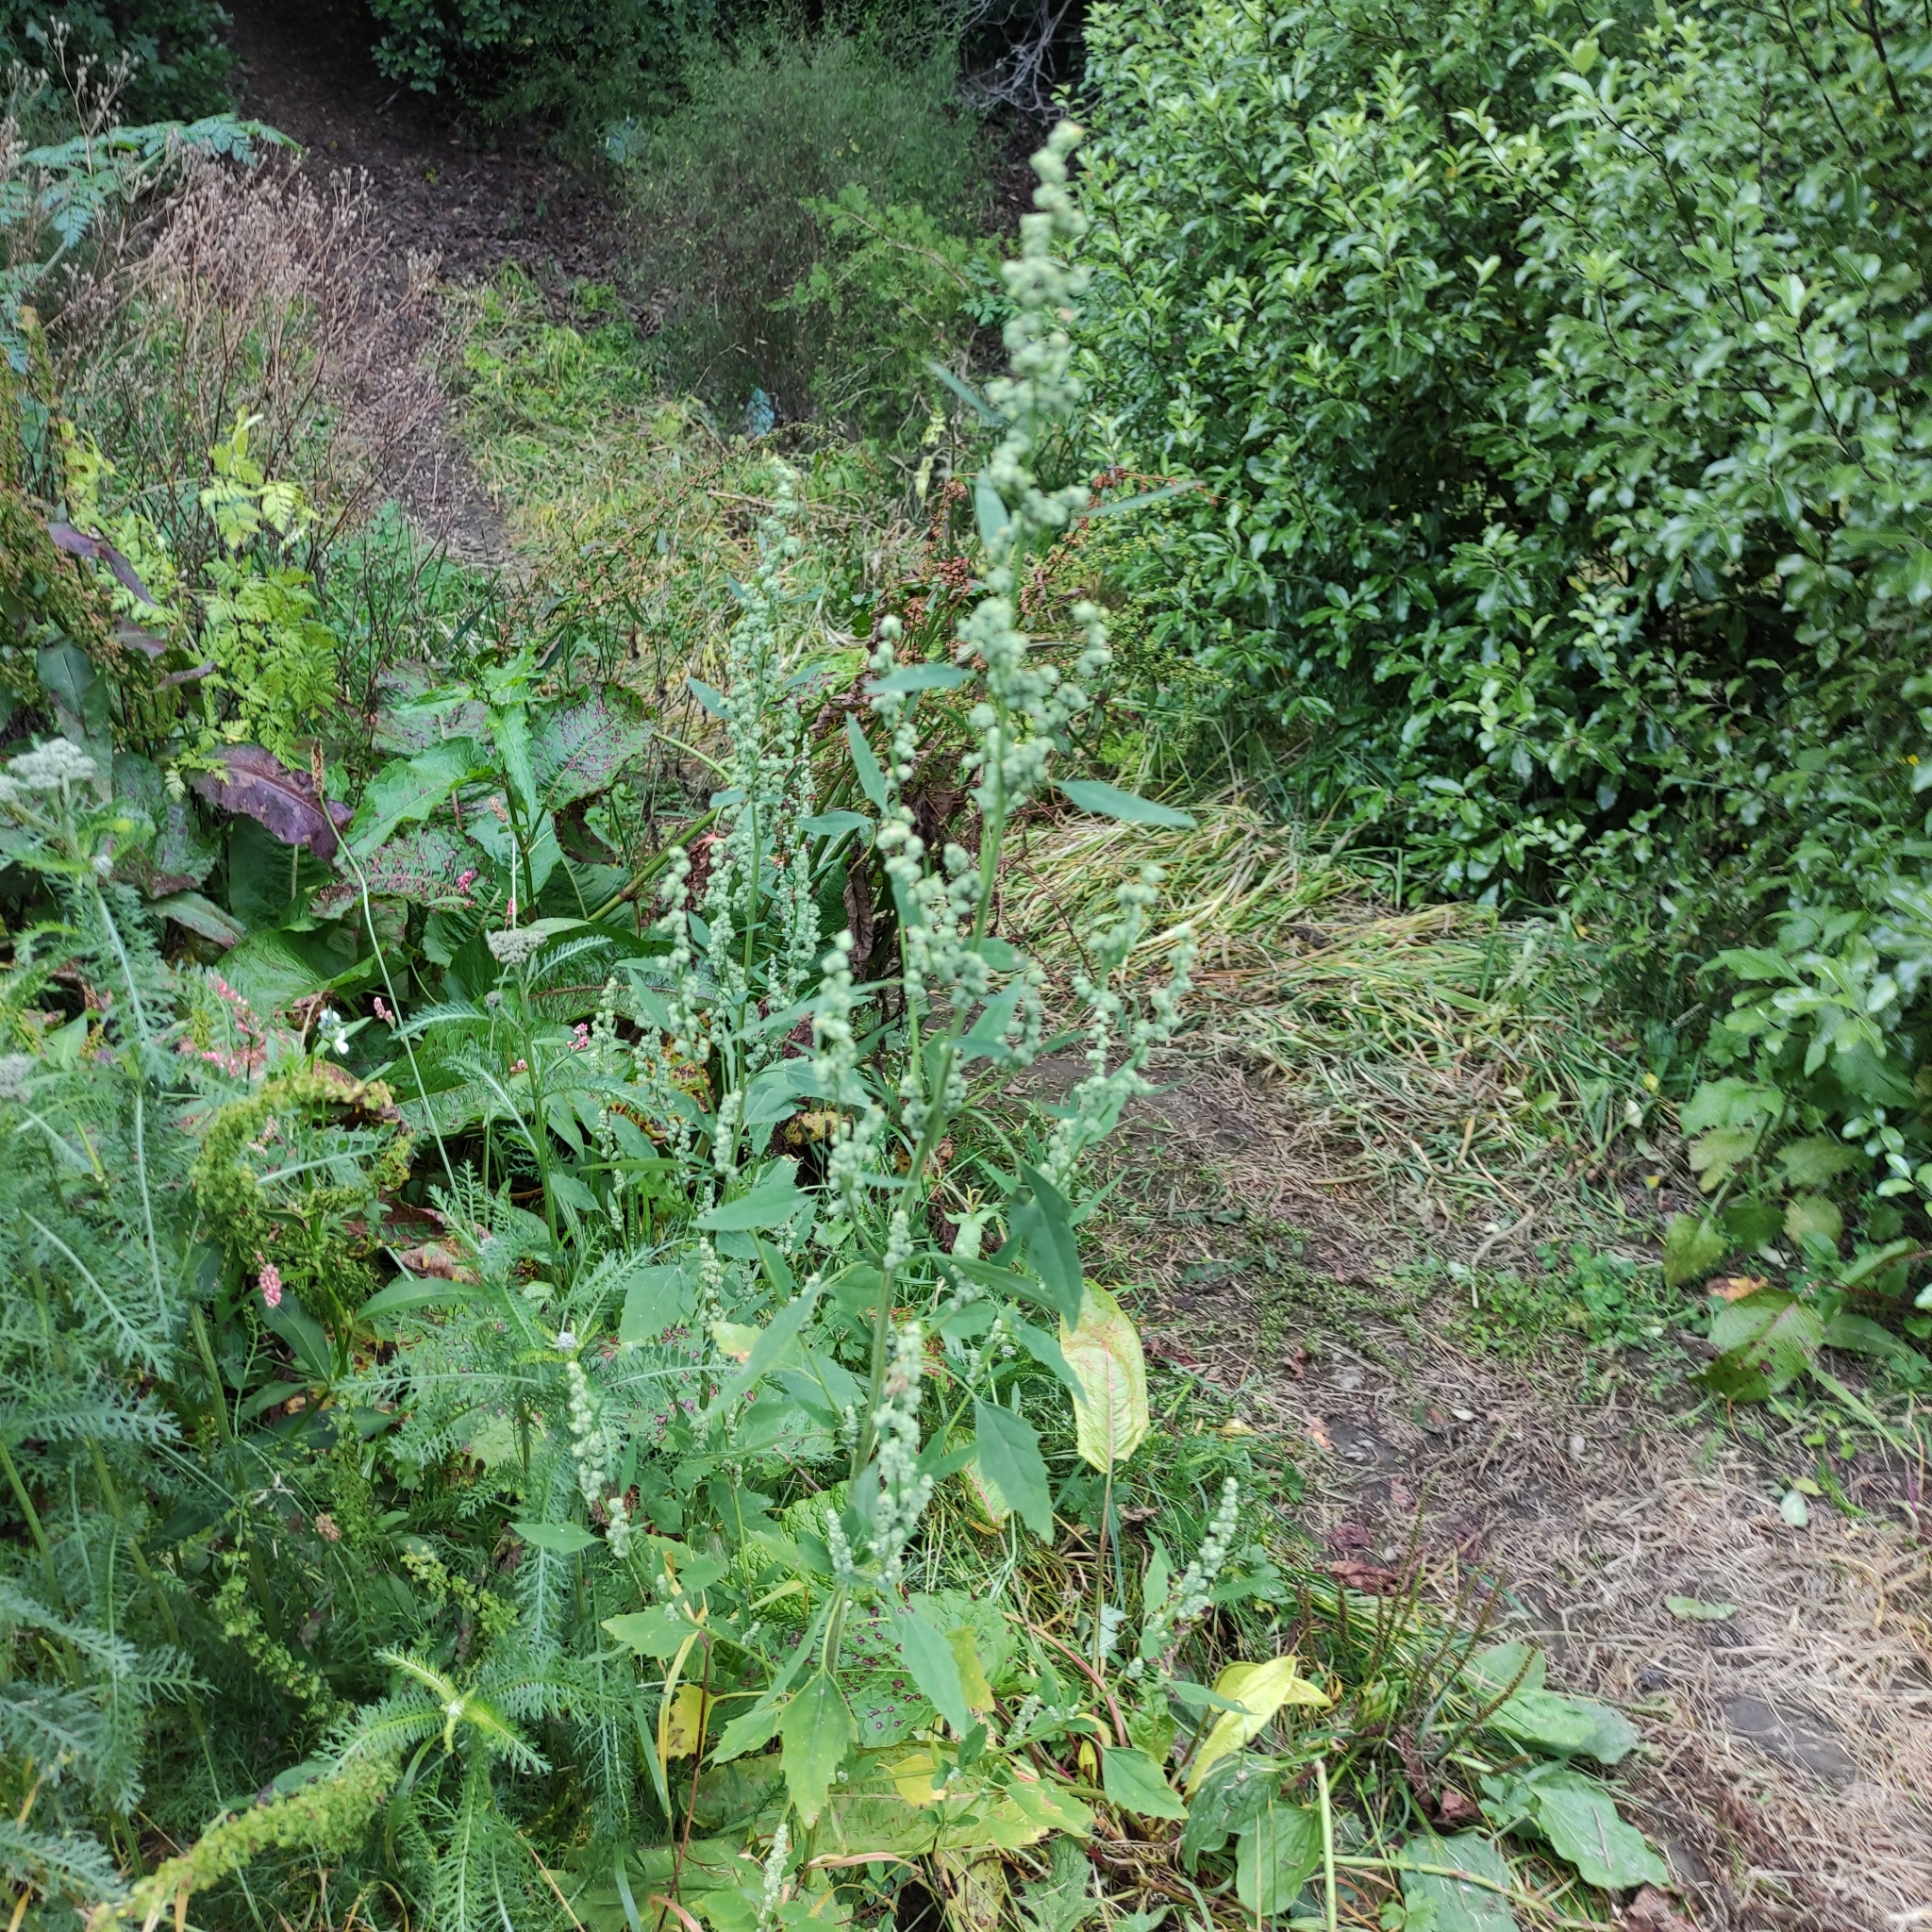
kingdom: Plantae
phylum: Tracheophyta
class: Magnoliopsida
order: Caryophyllales
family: Amaranthaceae
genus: Chenopodium
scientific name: Chenopodium album
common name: Fat-hen
